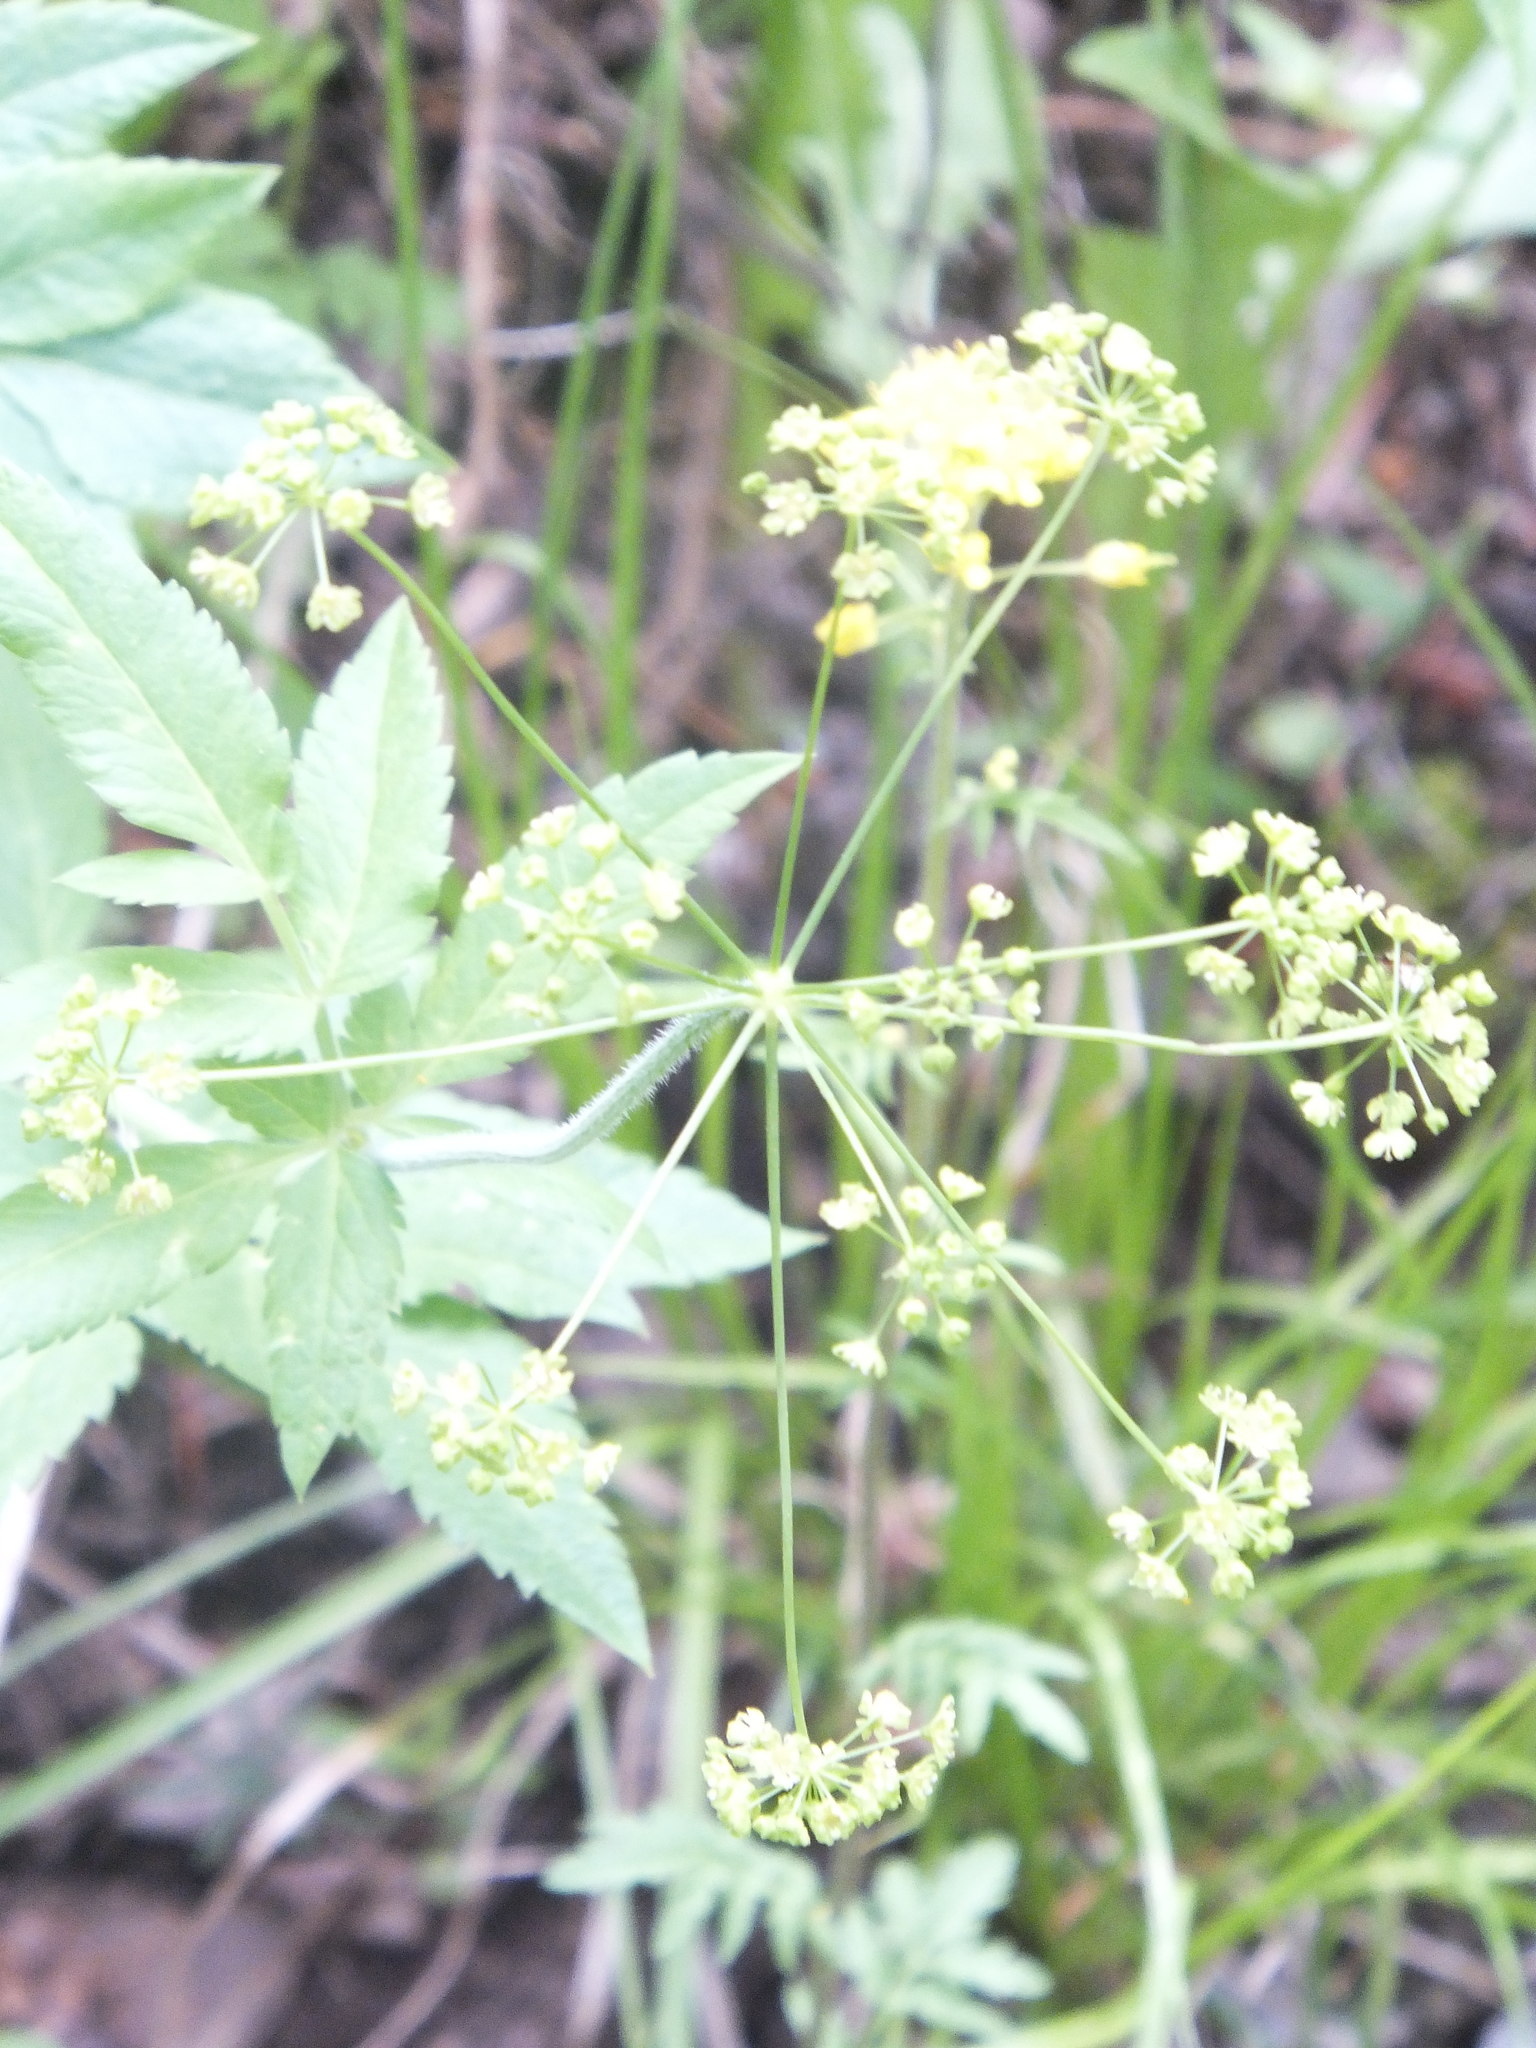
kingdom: Plantae
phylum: Tracheophyta
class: Magnoliopsida
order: Apiales
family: Apiaceae
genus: Osmorhiza
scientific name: Osmorhiza occidentalis
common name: Western sweet cicely
